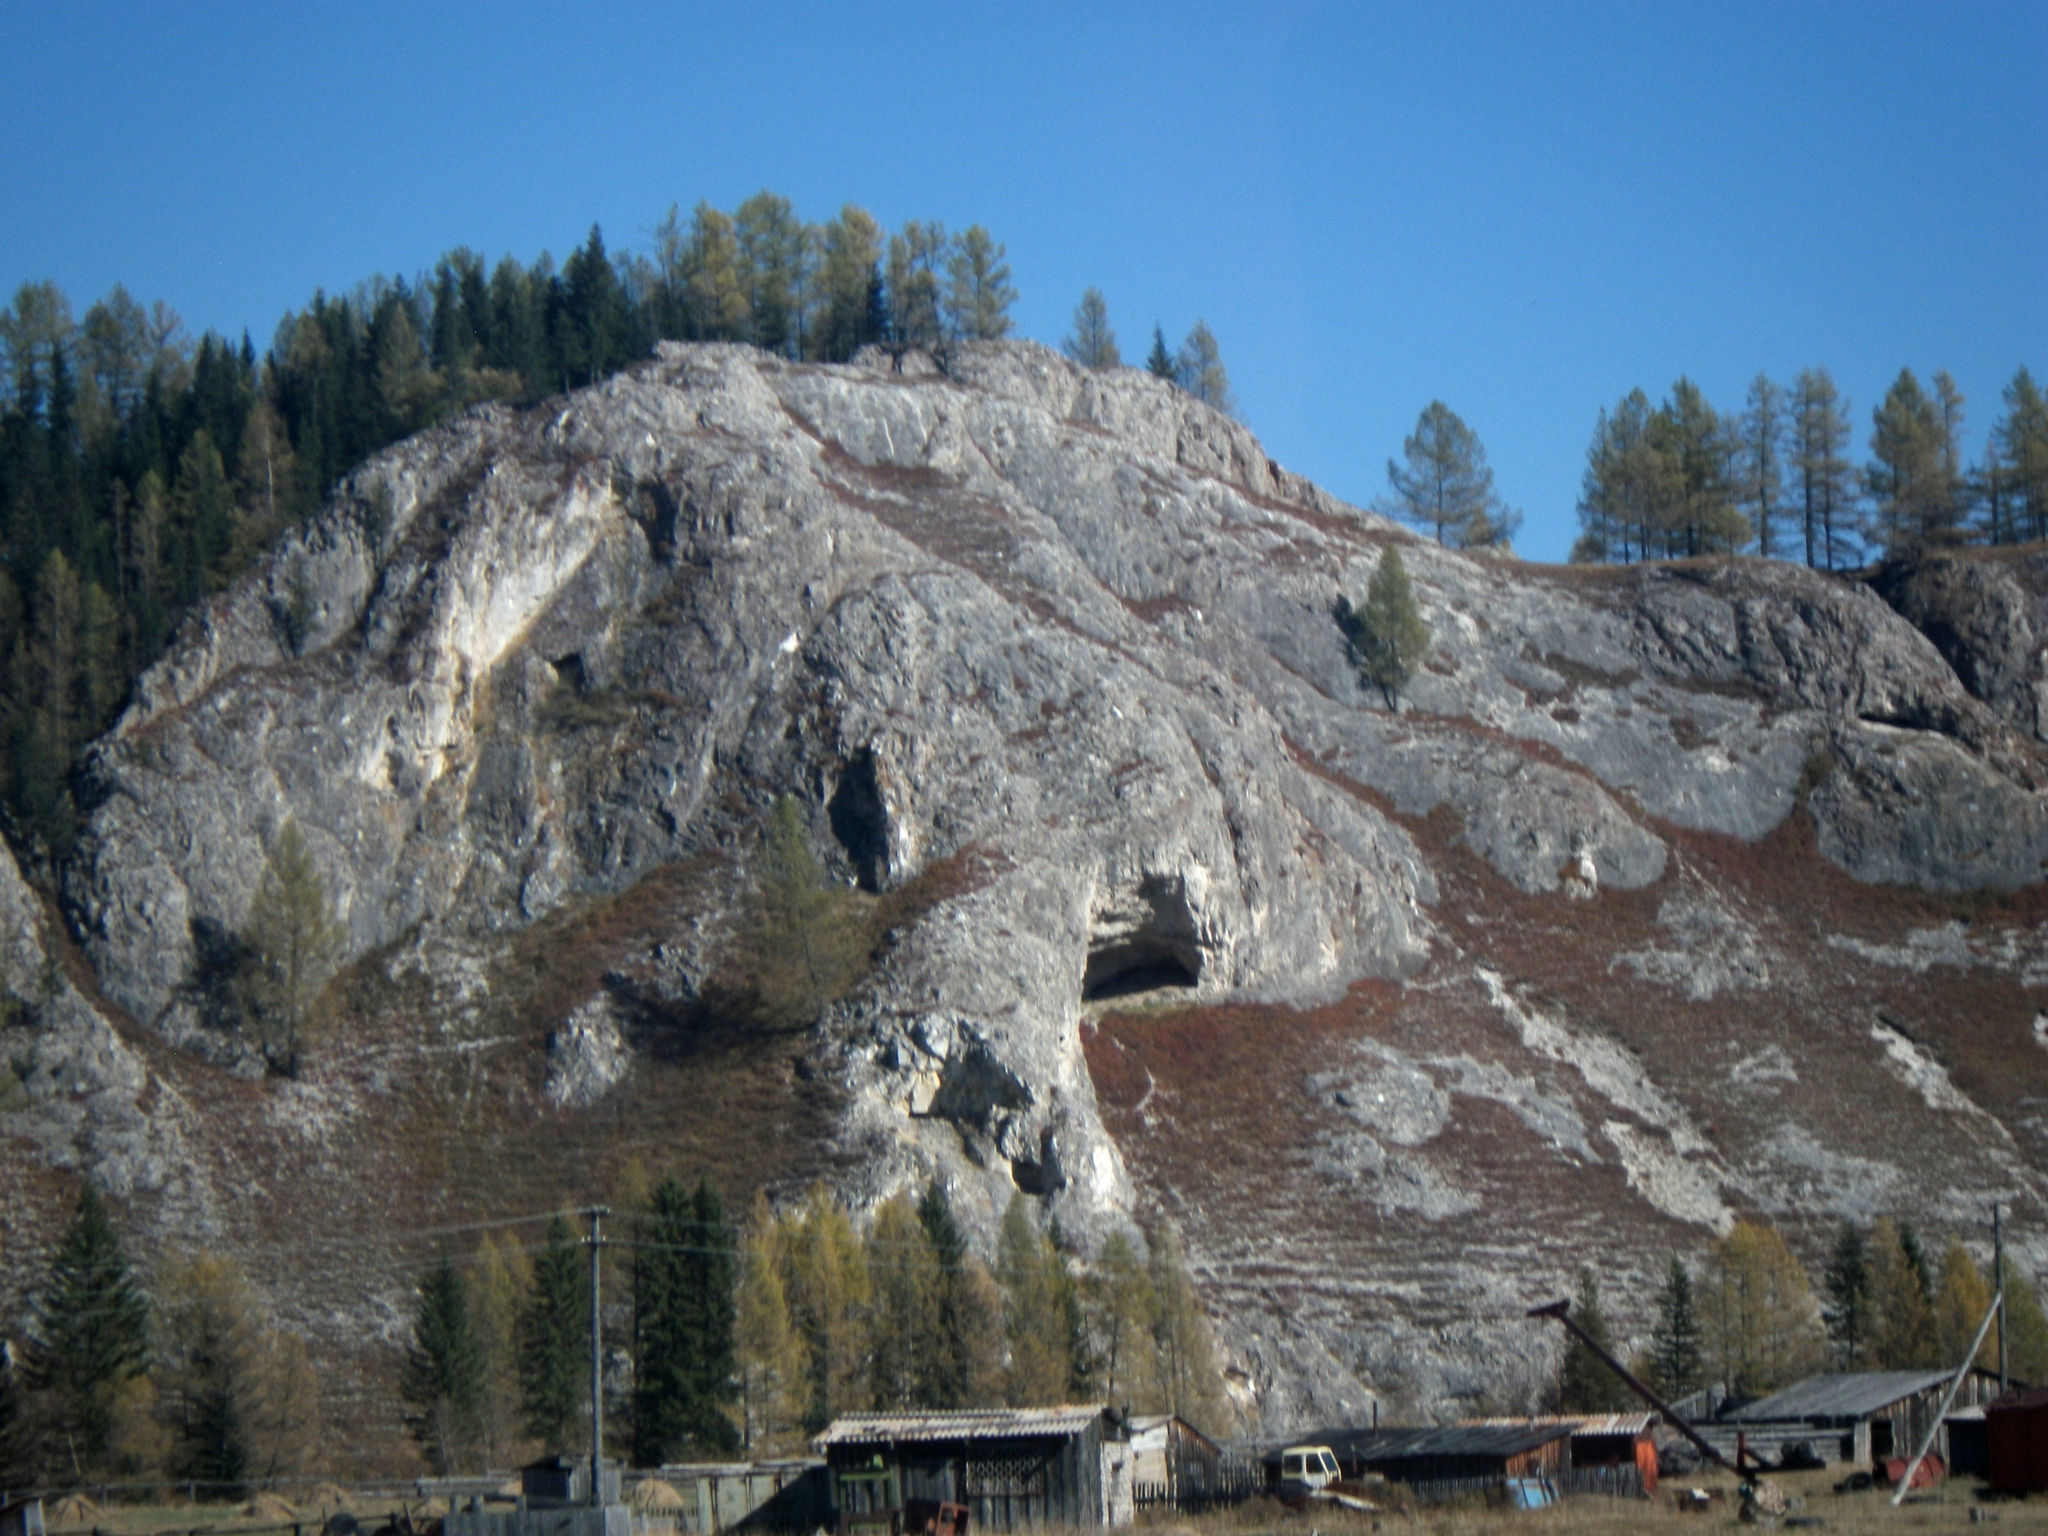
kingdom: Plantae
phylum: Tracheophyta
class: Pinopsida
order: Pinales
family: Pinaceae
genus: Larix
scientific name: Larix sibirica
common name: Siberian larch
